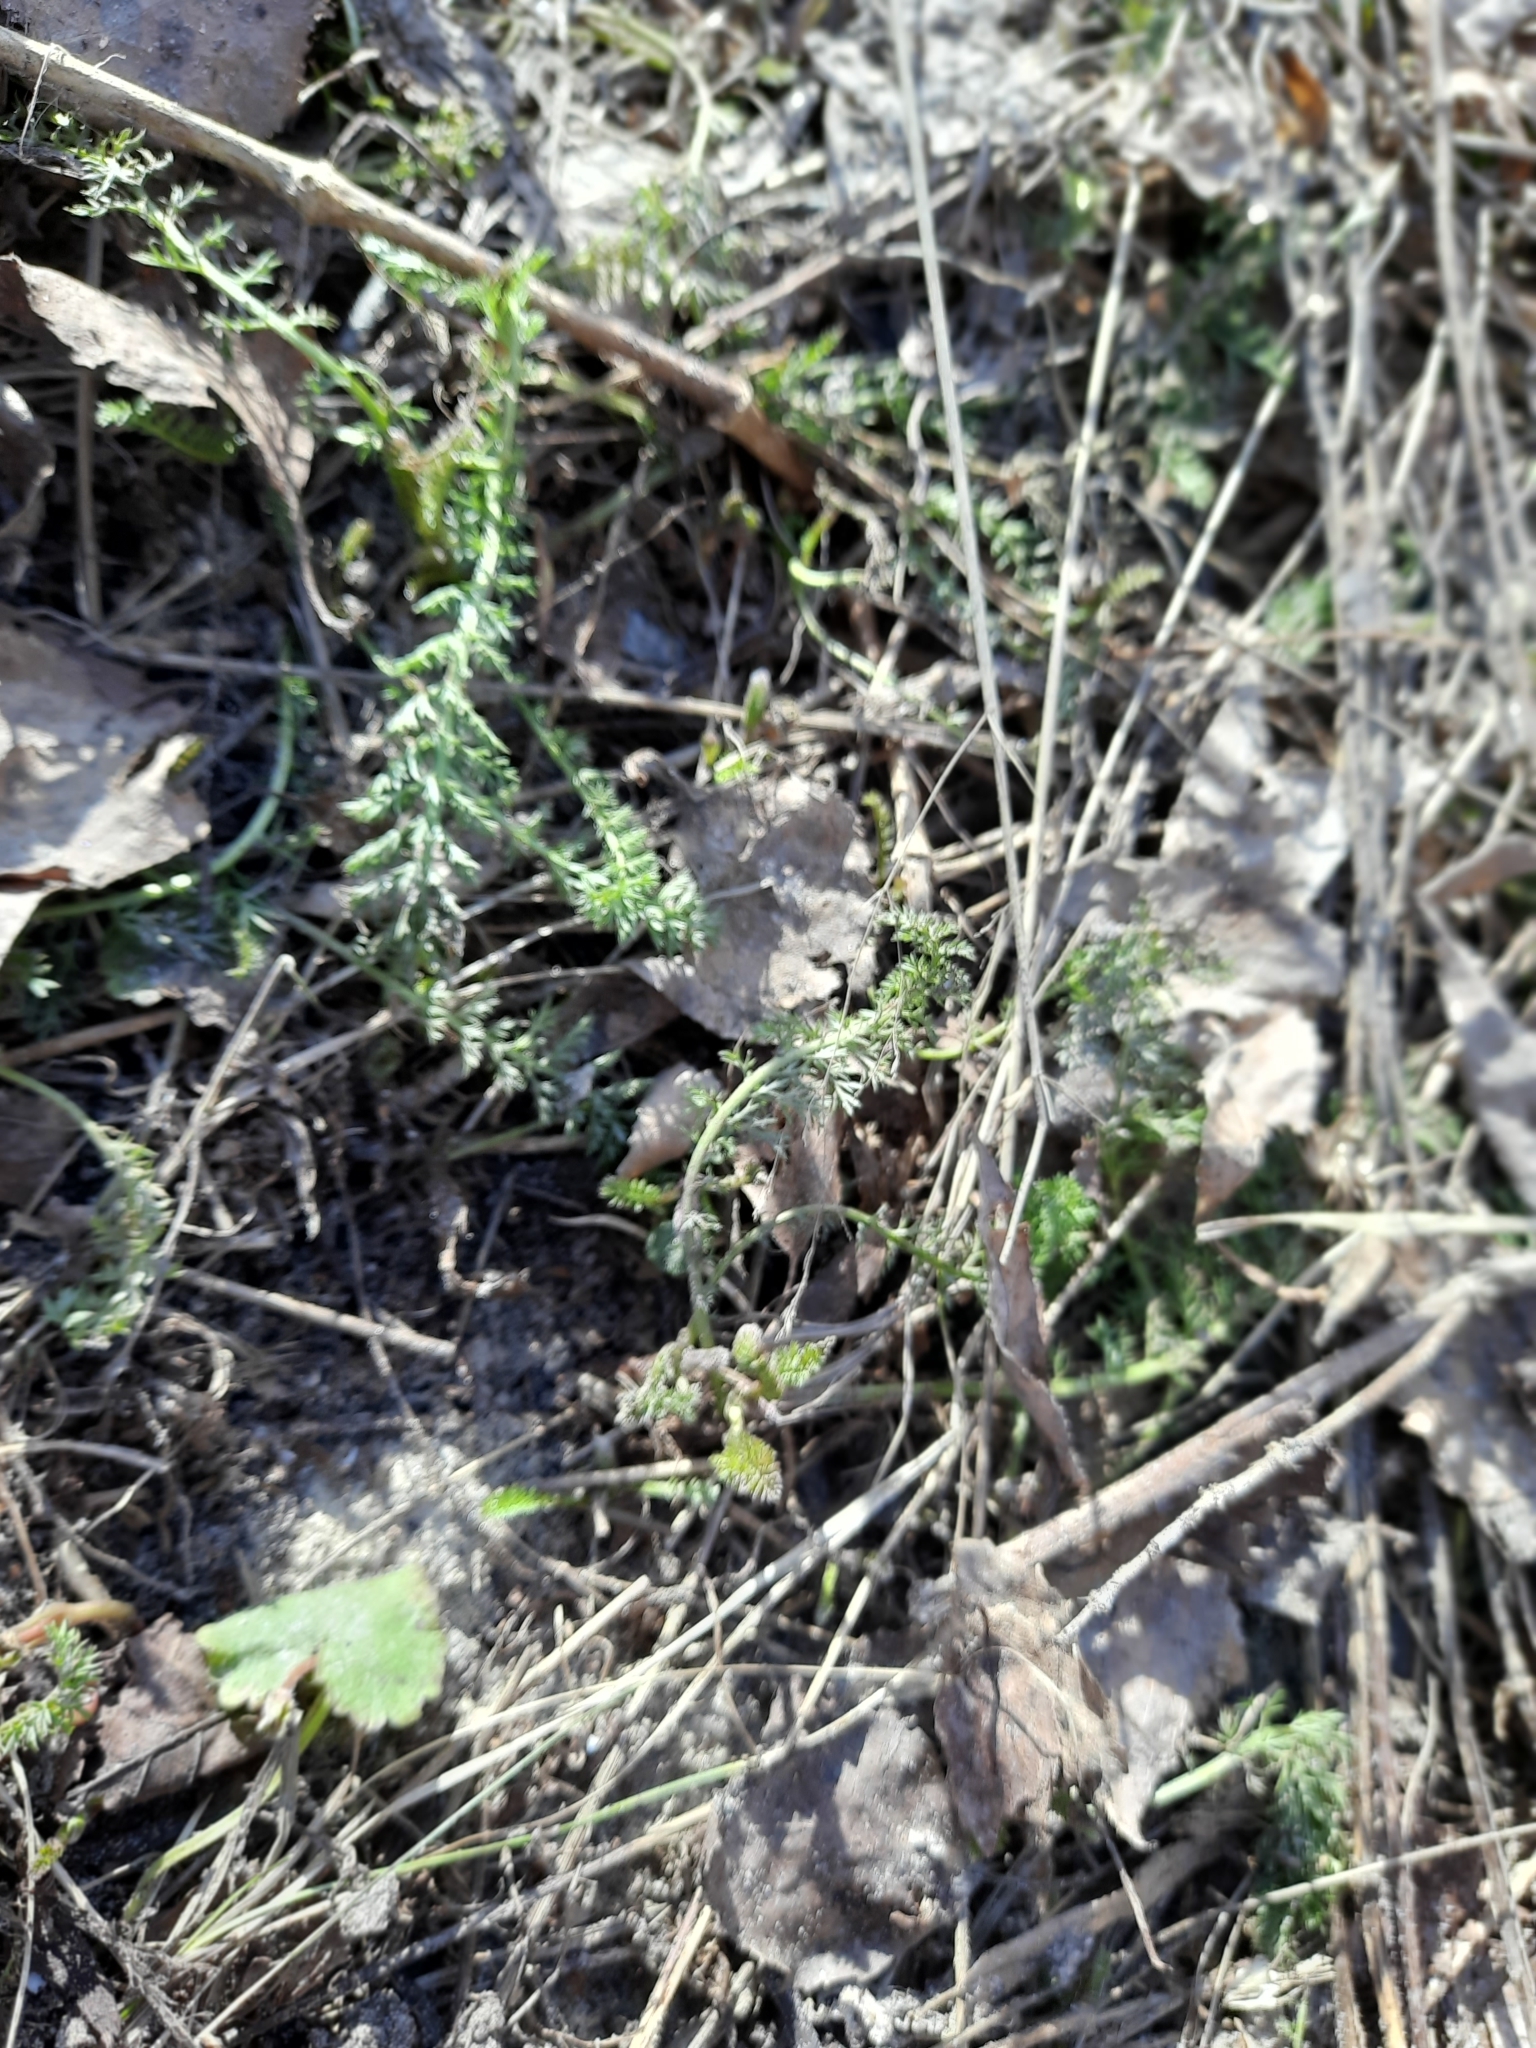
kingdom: Plantae
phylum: Tracheophyta
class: Magnoliopsida
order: Asterales
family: Asteraceae
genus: Achillea
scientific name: Achillea millefolium
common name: Yarrow
